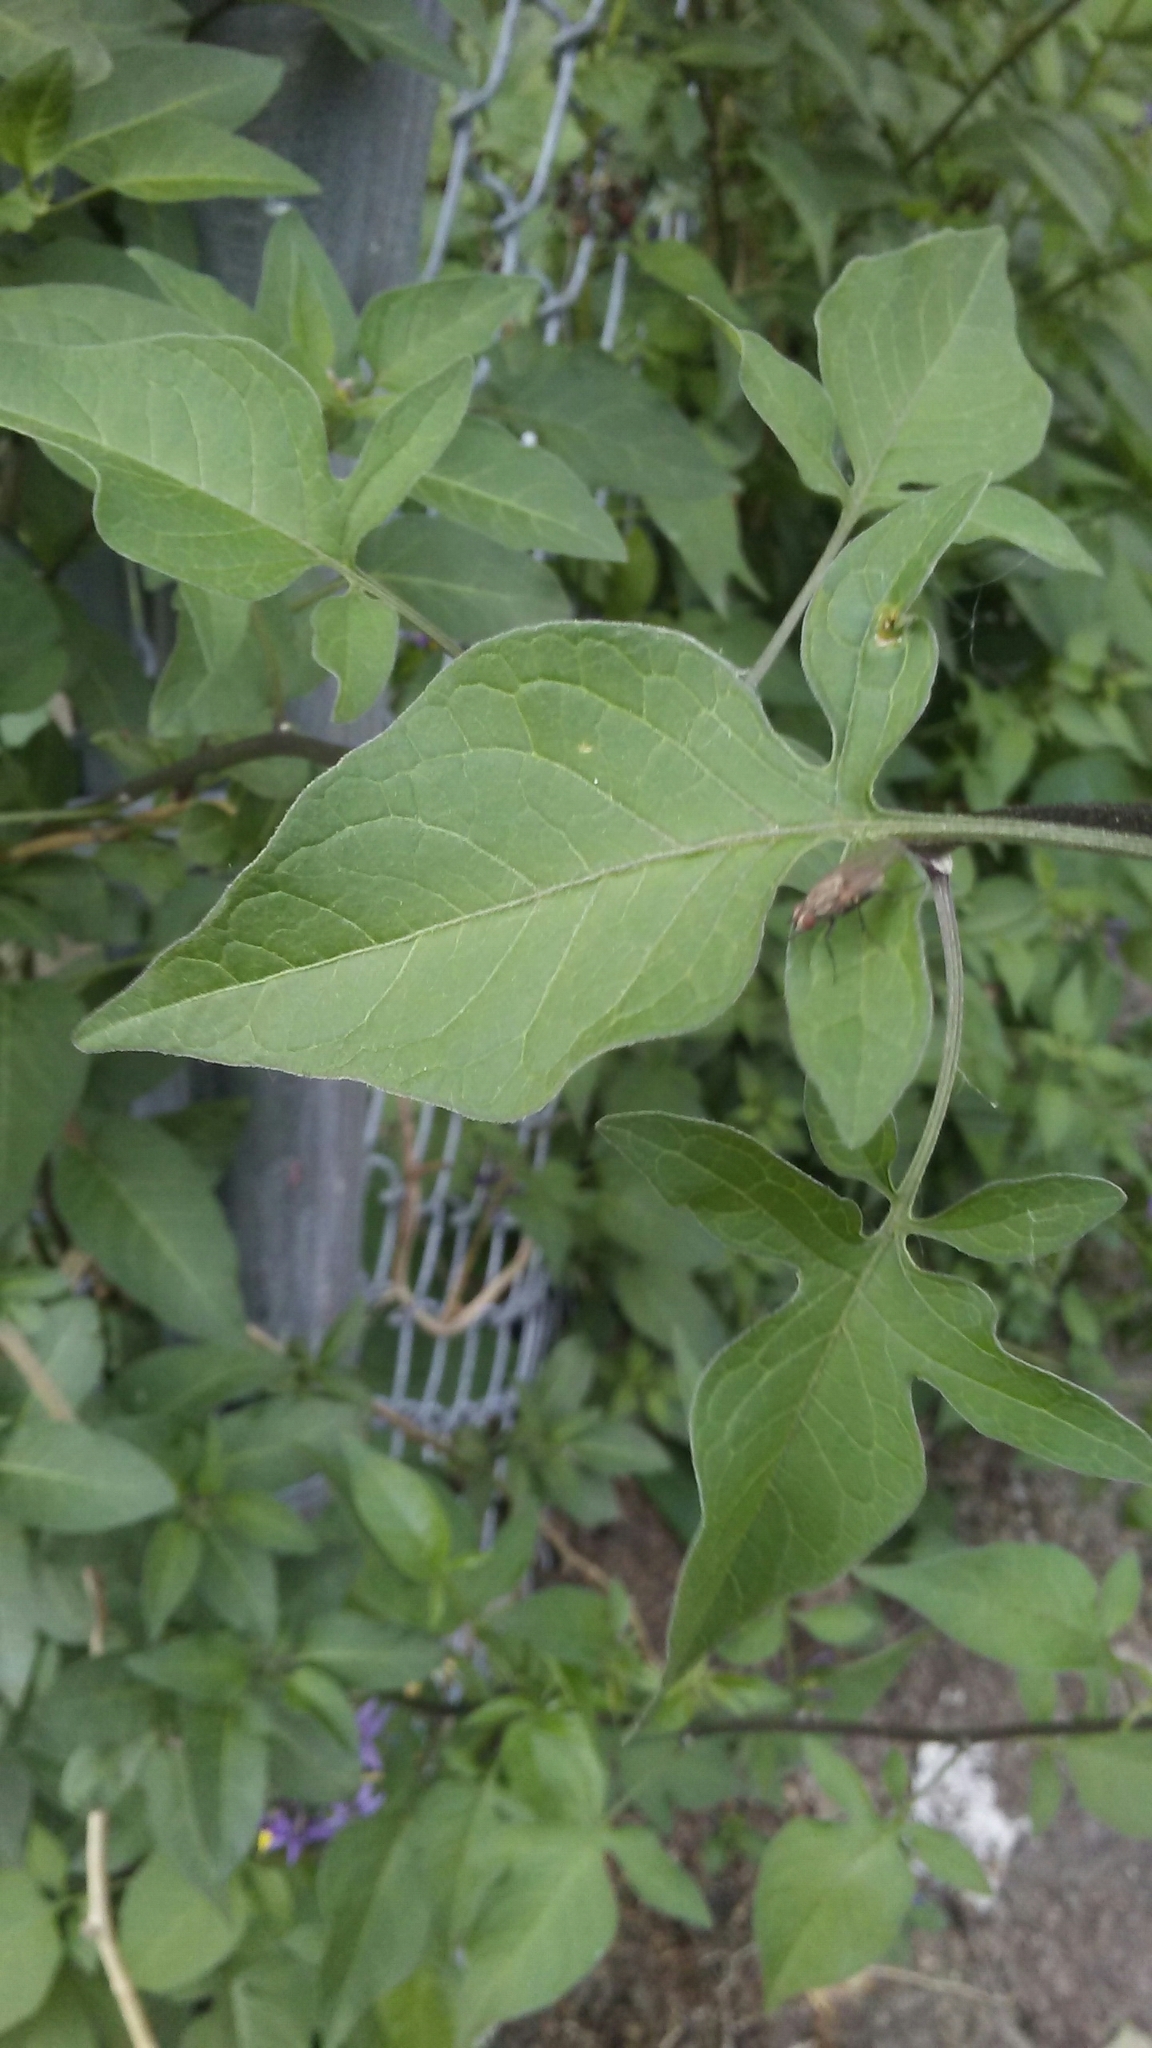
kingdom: Plantae
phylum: Tracheophyta
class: Magnoliopsida
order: Solanales
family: Solanaceae
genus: Solanum
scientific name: Solanum dulcamara
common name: Climbing nightshade
